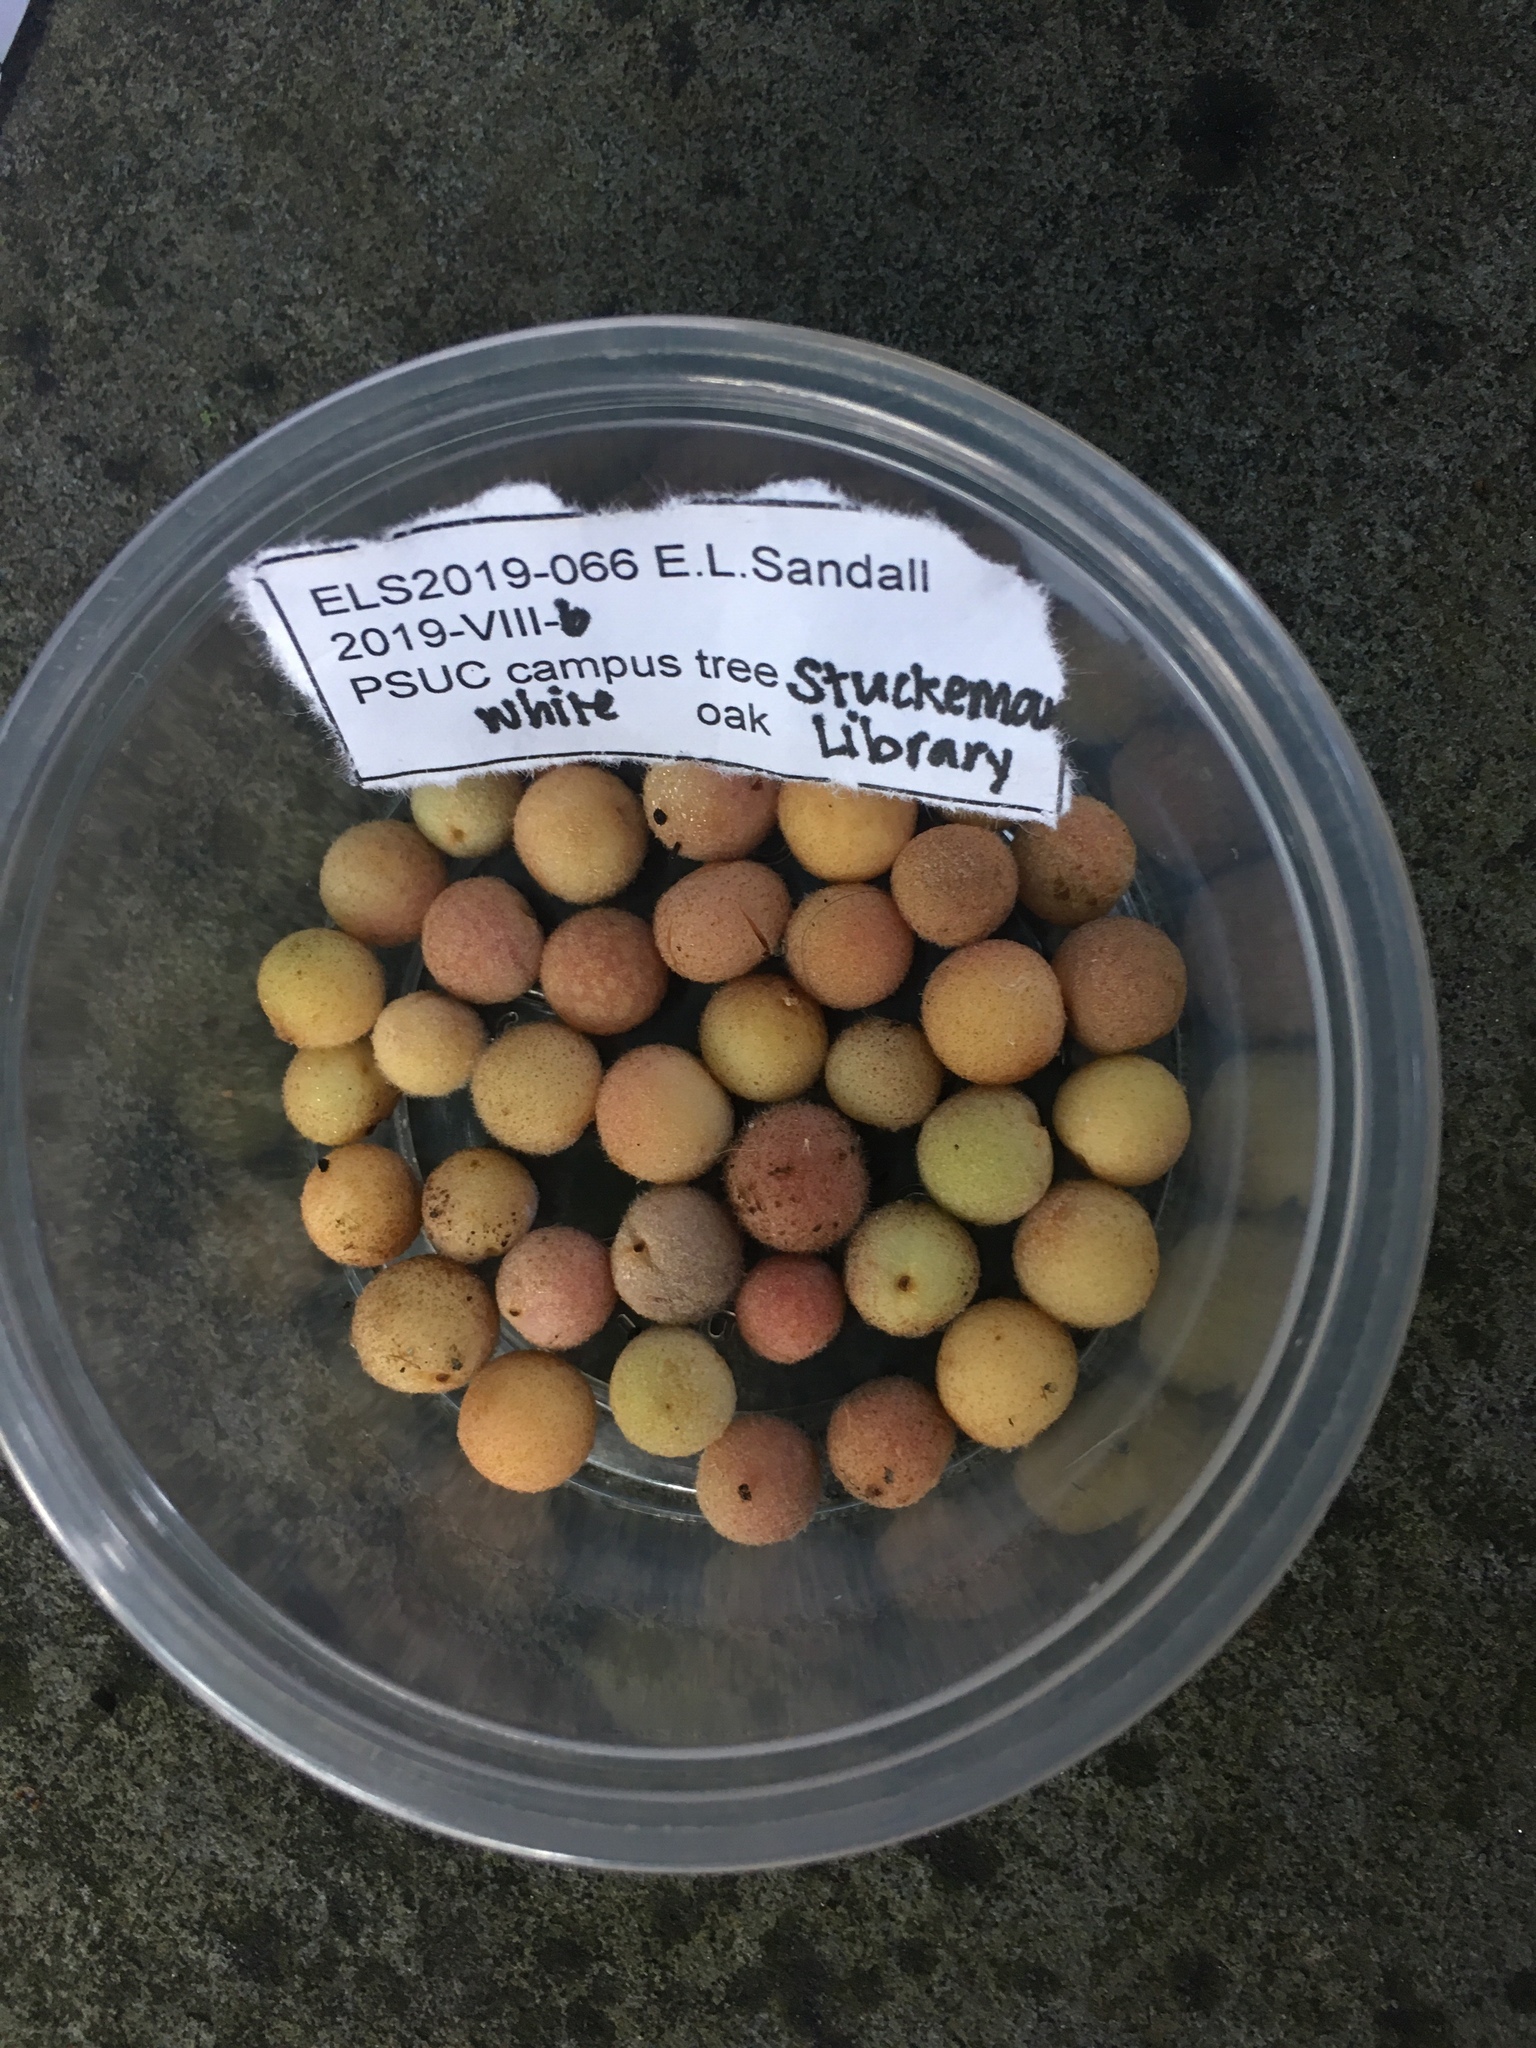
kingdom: Animalia
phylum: Arthropoda
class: Insecta
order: Hymenoptera
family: Cynipidae
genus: Philonix
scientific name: Philonix fulvicollis
